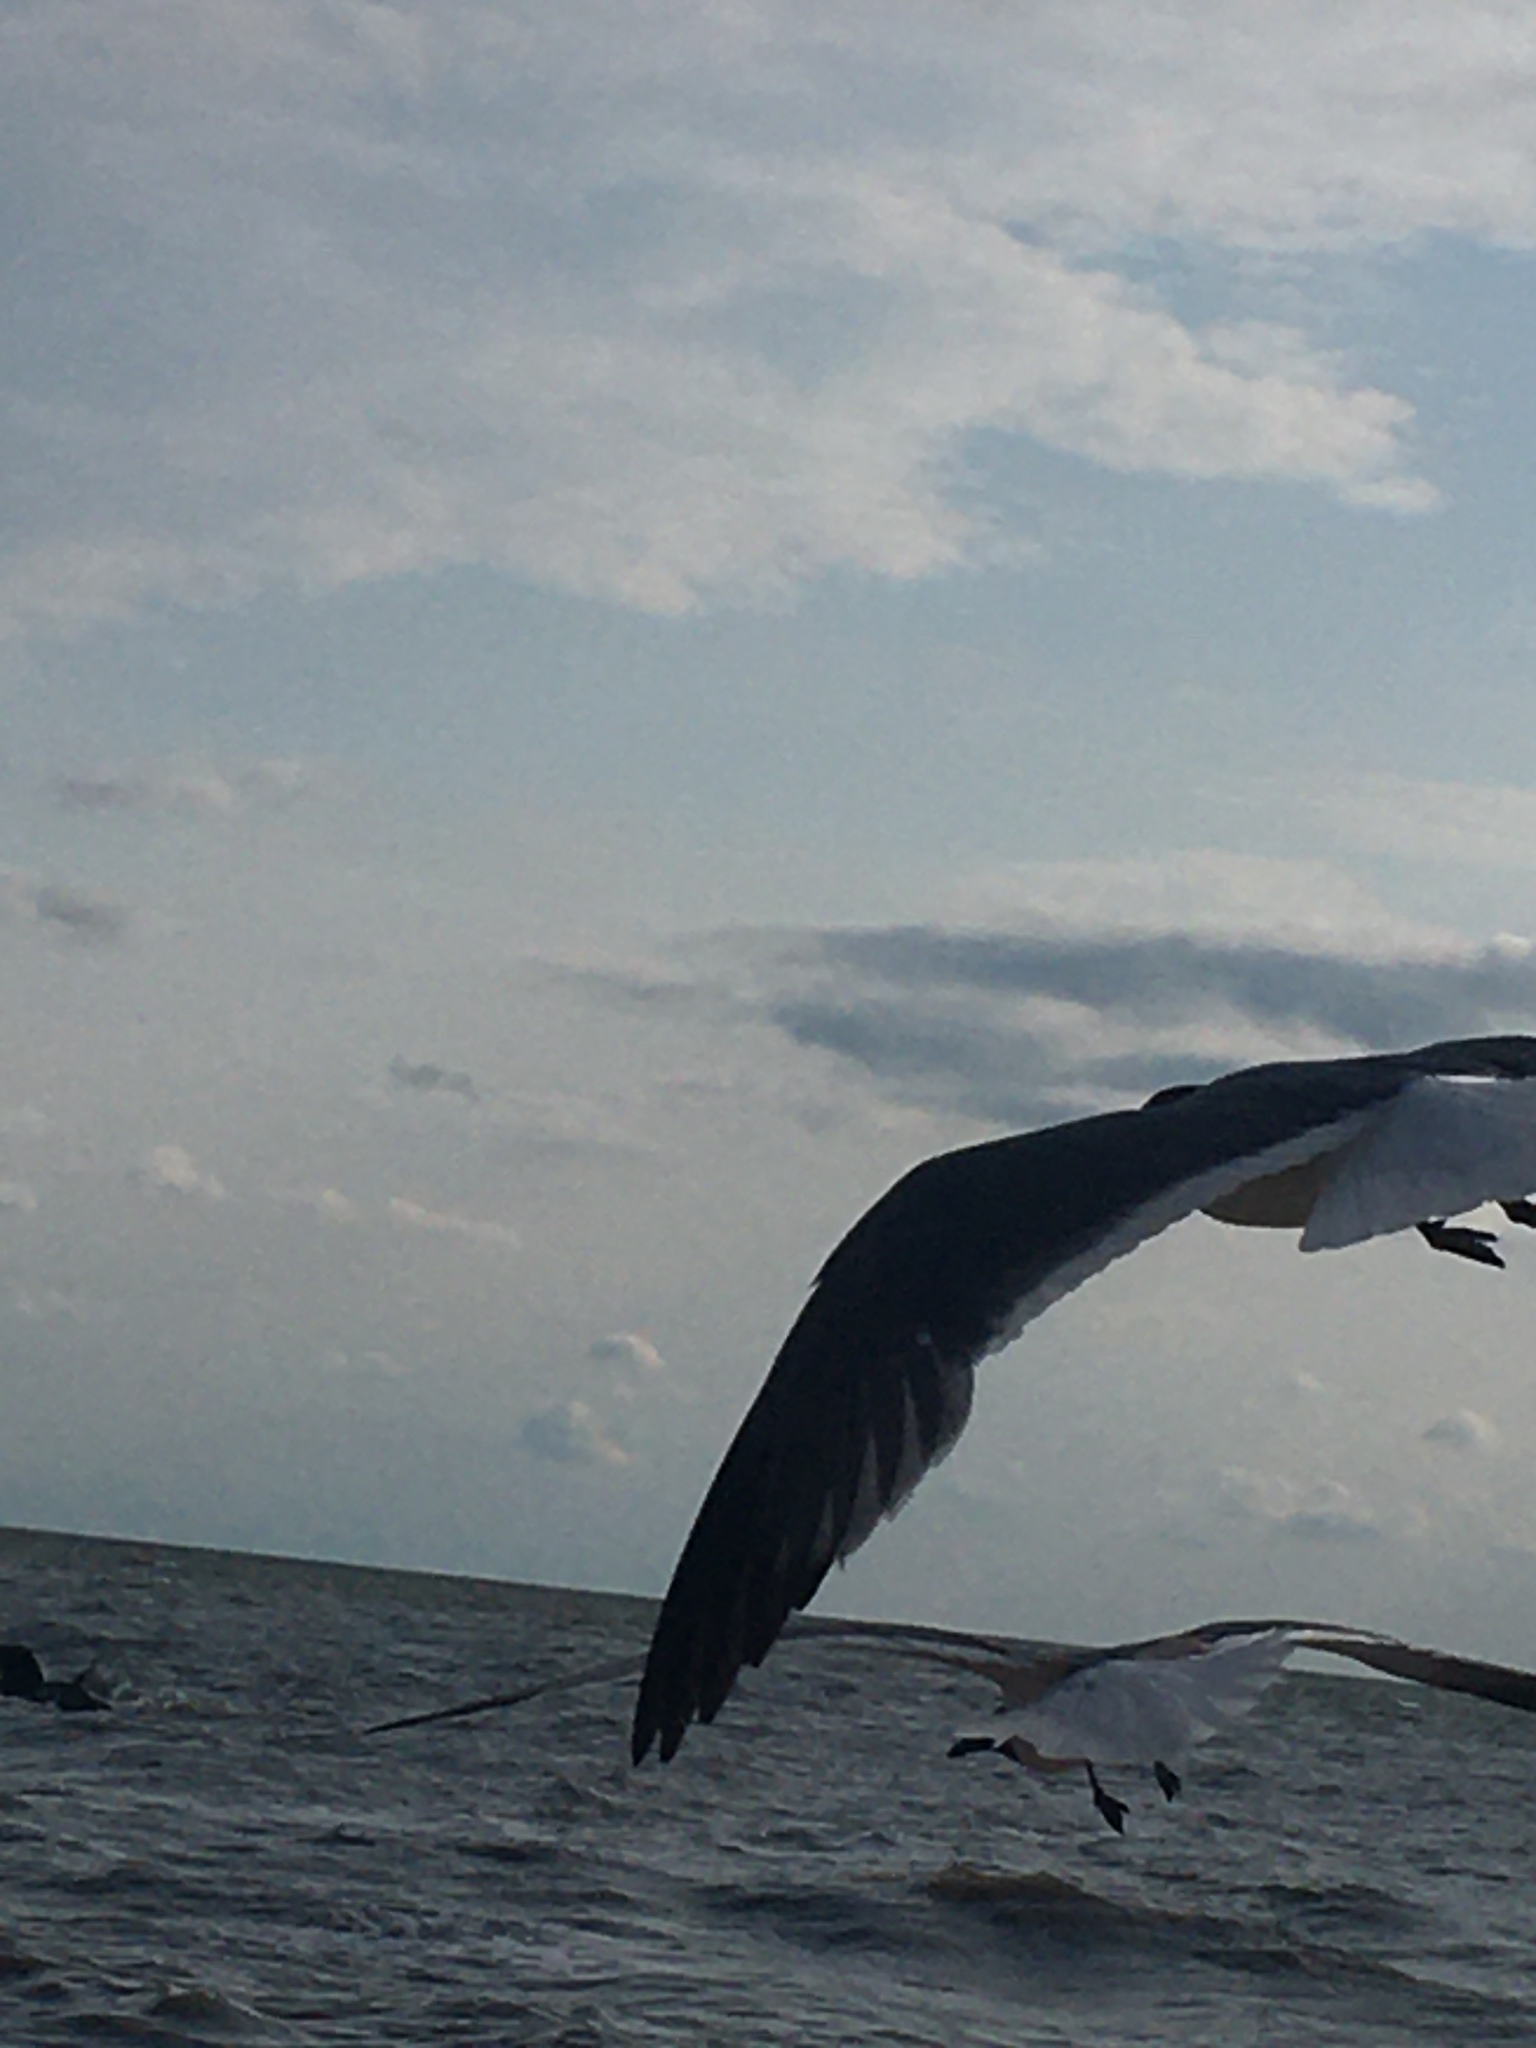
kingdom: Animalia
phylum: Chordata
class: Aves
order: Charadriiformes
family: Laridae
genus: Leucophaeus
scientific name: Leucophaeus atricilla
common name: Laughing gull
